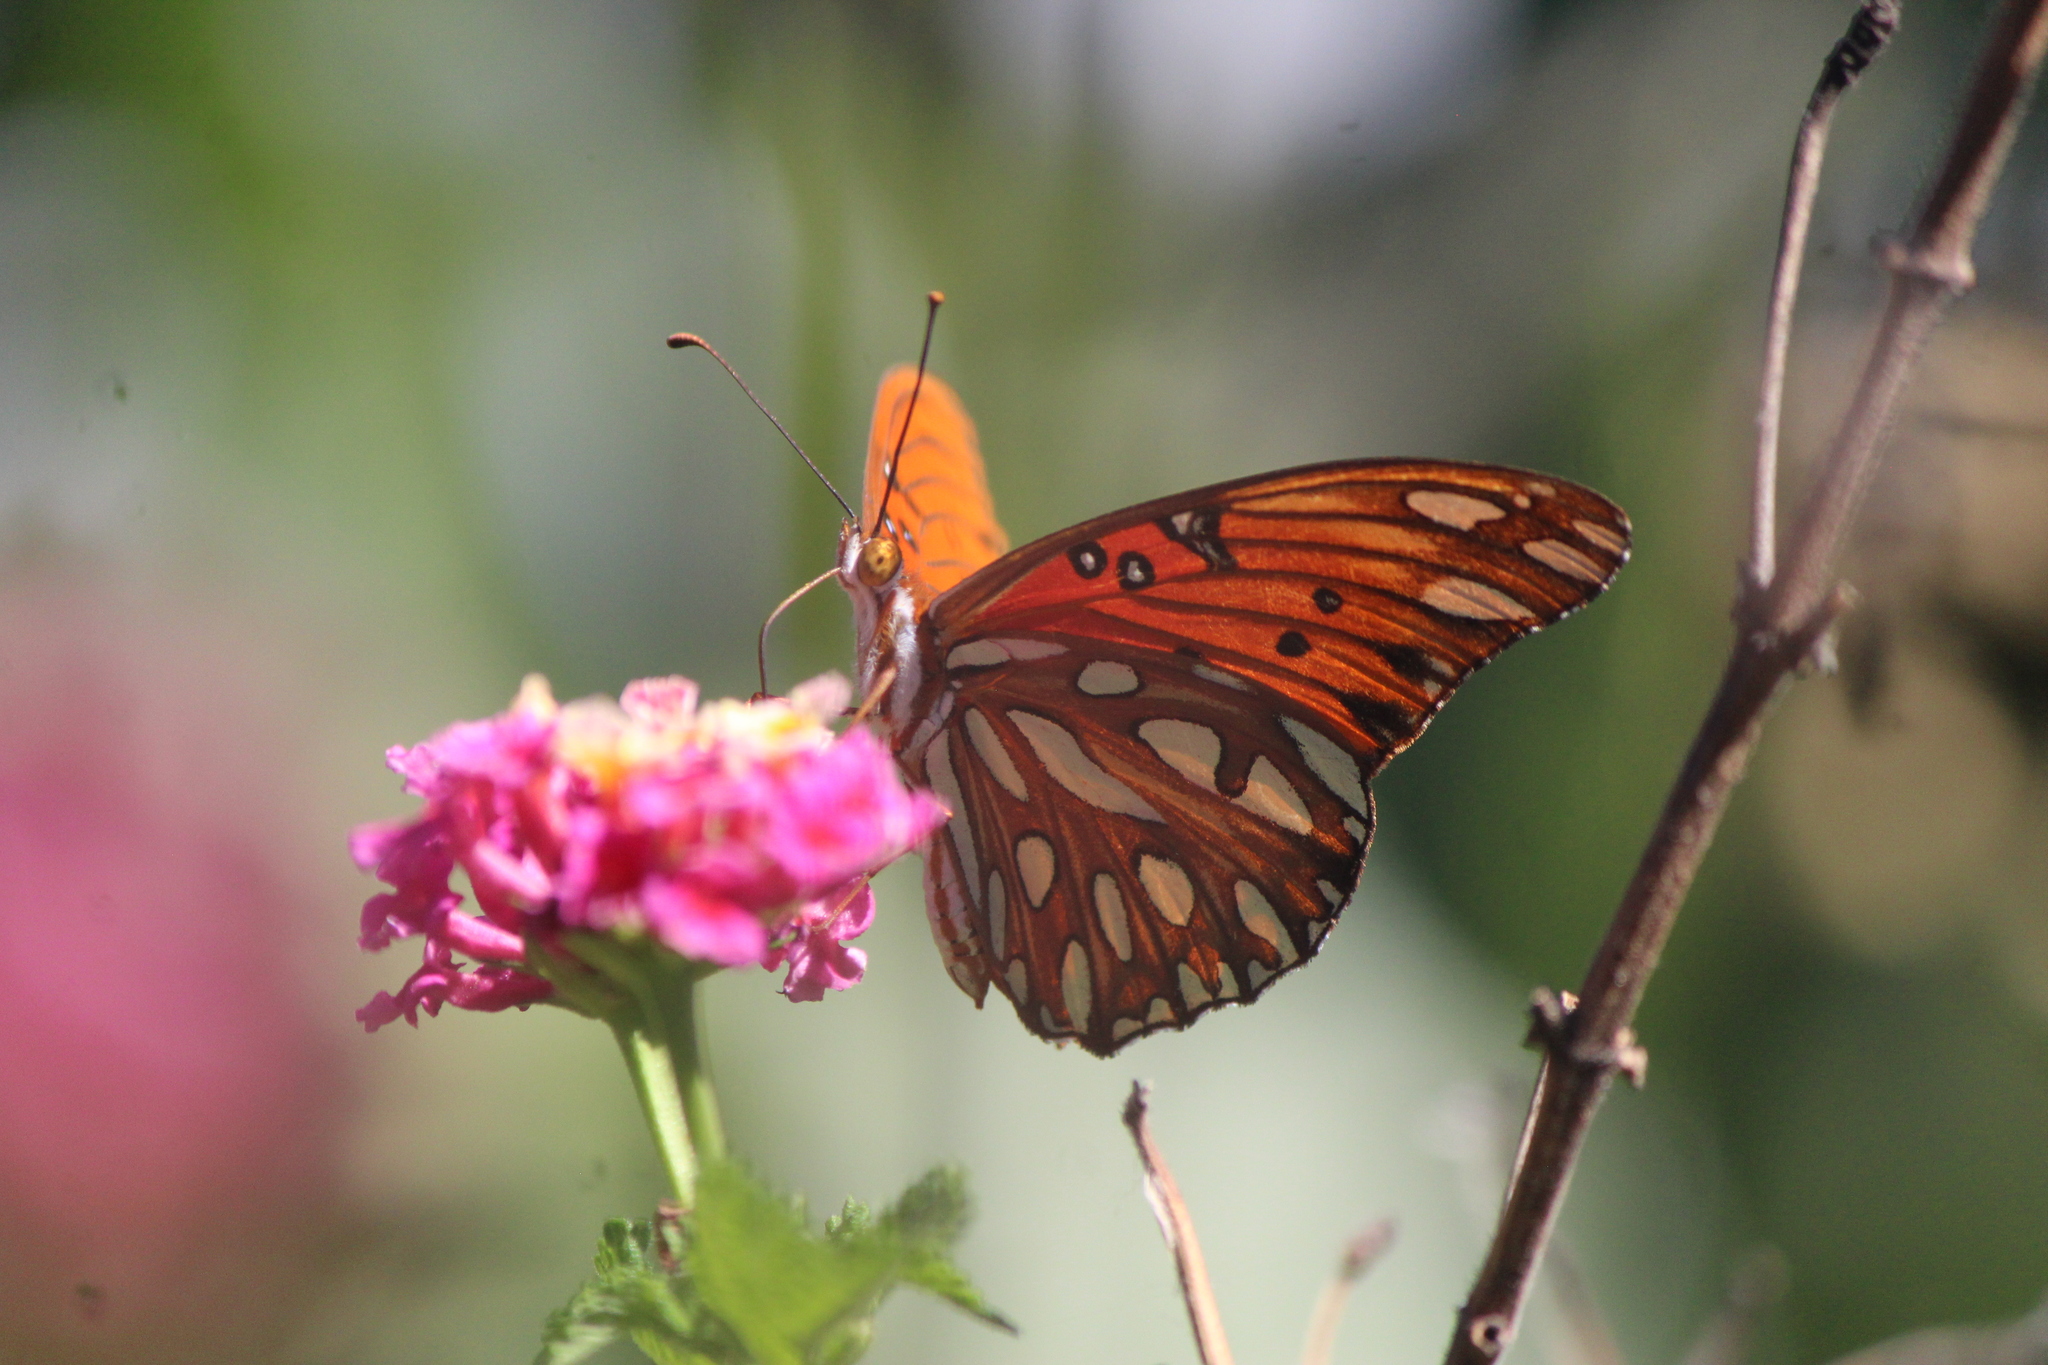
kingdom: Animalia
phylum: Arthropoda
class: Insecta
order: Lepidoptera
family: Nymphalidae
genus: Dione
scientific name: Dione vanillae
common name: Gulf fritillary
